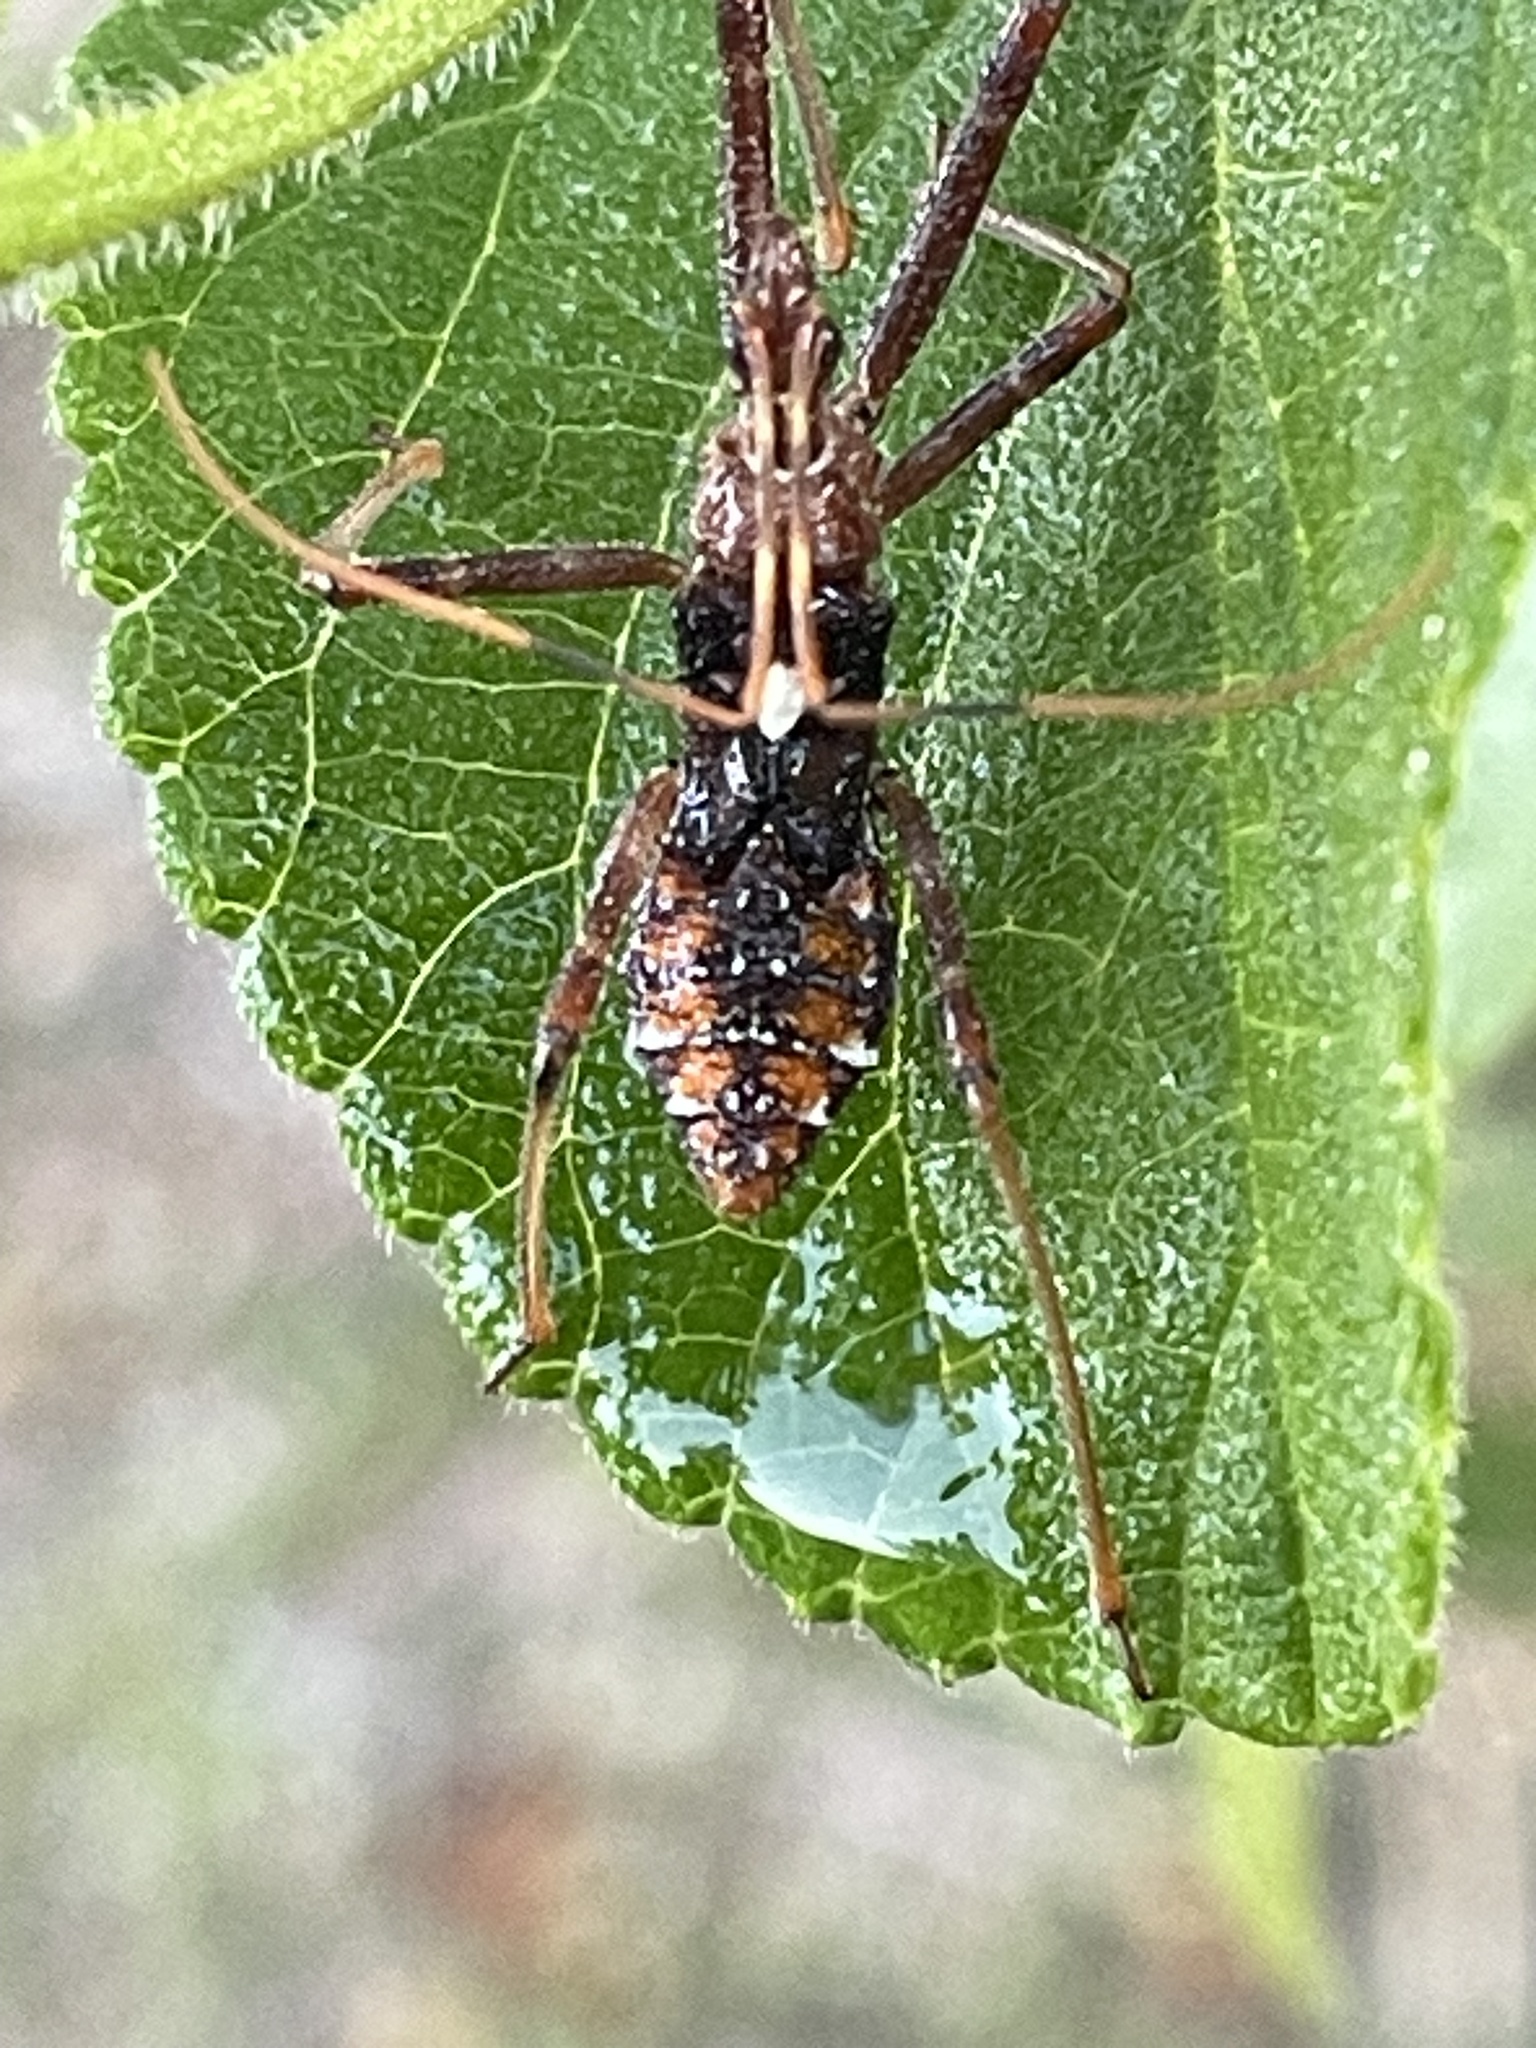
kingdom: Animalia
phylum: Arthropoda
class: Insecta
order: Hemiptera
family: Reduviidae
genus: Pristhesancus
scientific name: Pristhesancus plagipennis
